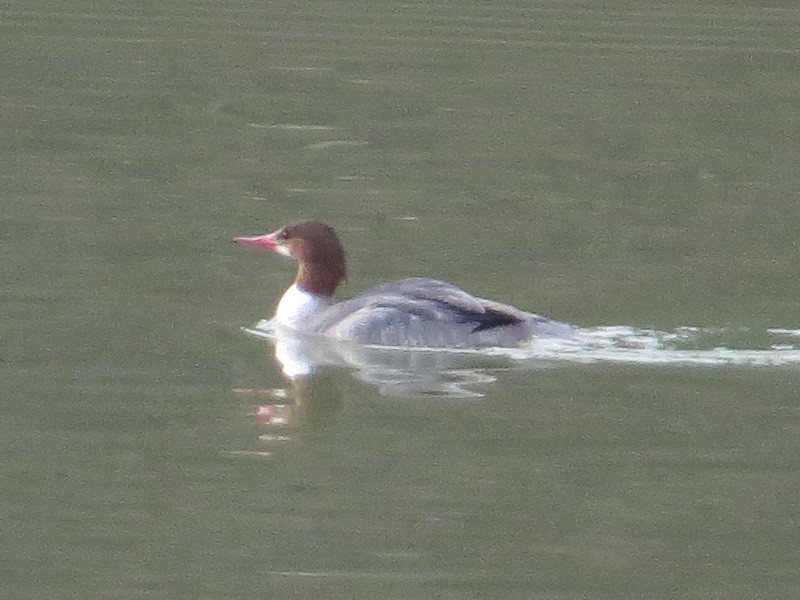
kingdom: Animalia
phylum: Chordata
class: Aves
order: Anseriformes
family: Anatidae
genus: Mergus
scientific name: Mergus merganser
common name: Common merganser
